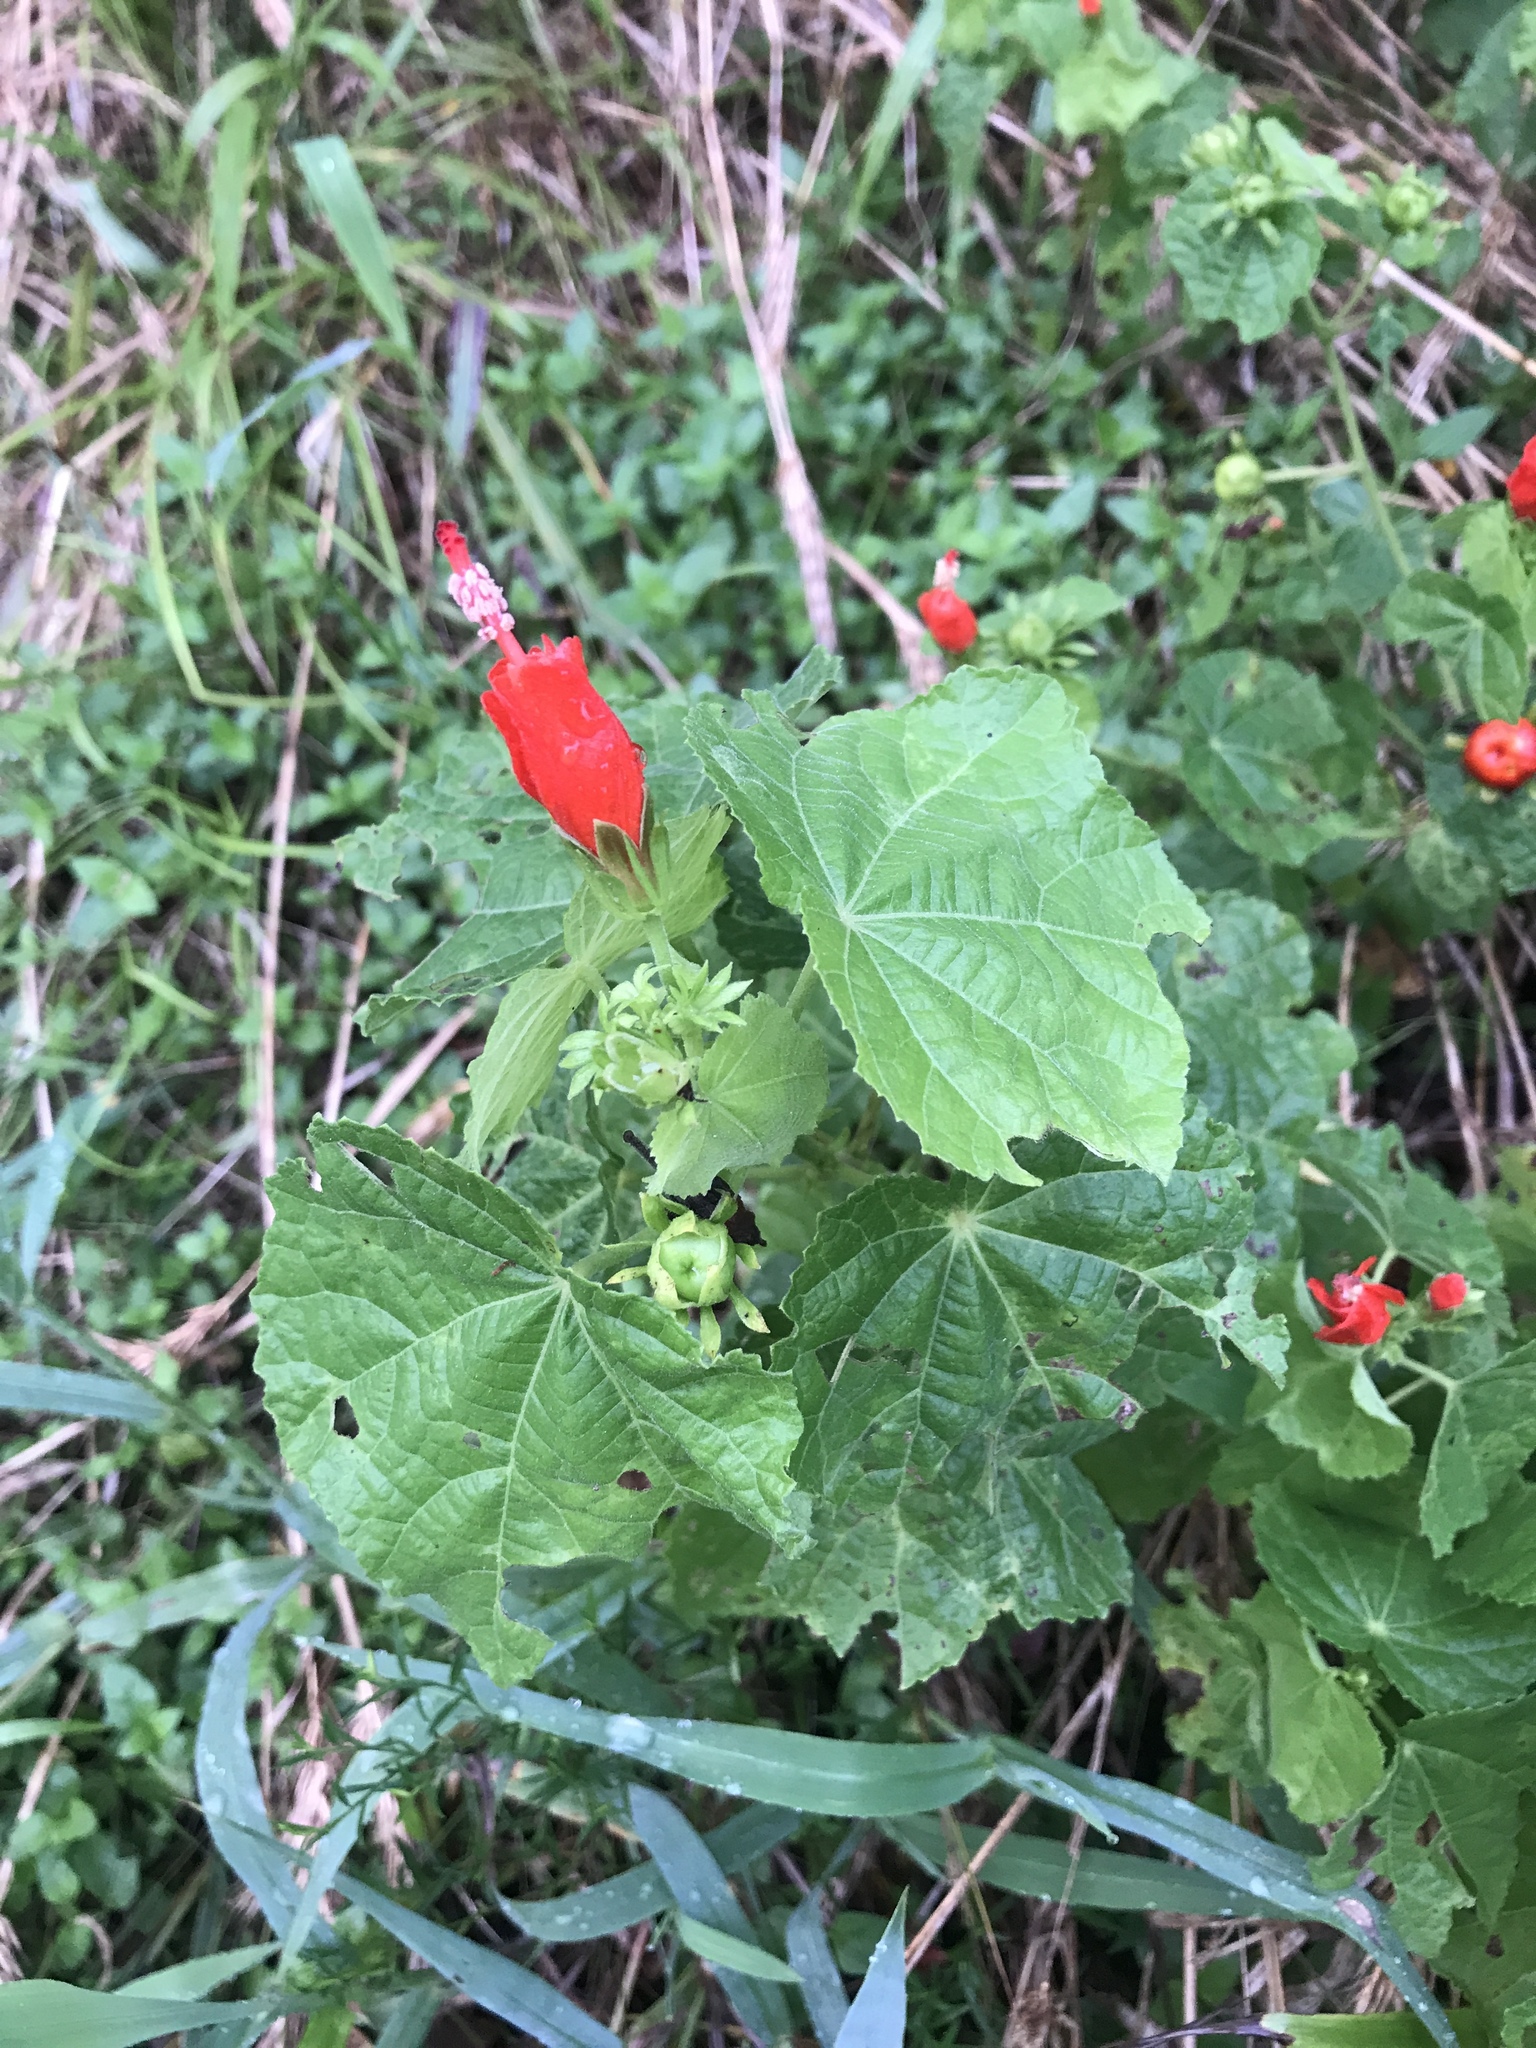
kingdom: Plantae
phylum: Tracheophyta
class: Magnoliopsida
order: Malvales
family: Malvaceae
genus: Malvaviscus
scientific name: Malvaviscus arboreus
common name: Wax mallow
